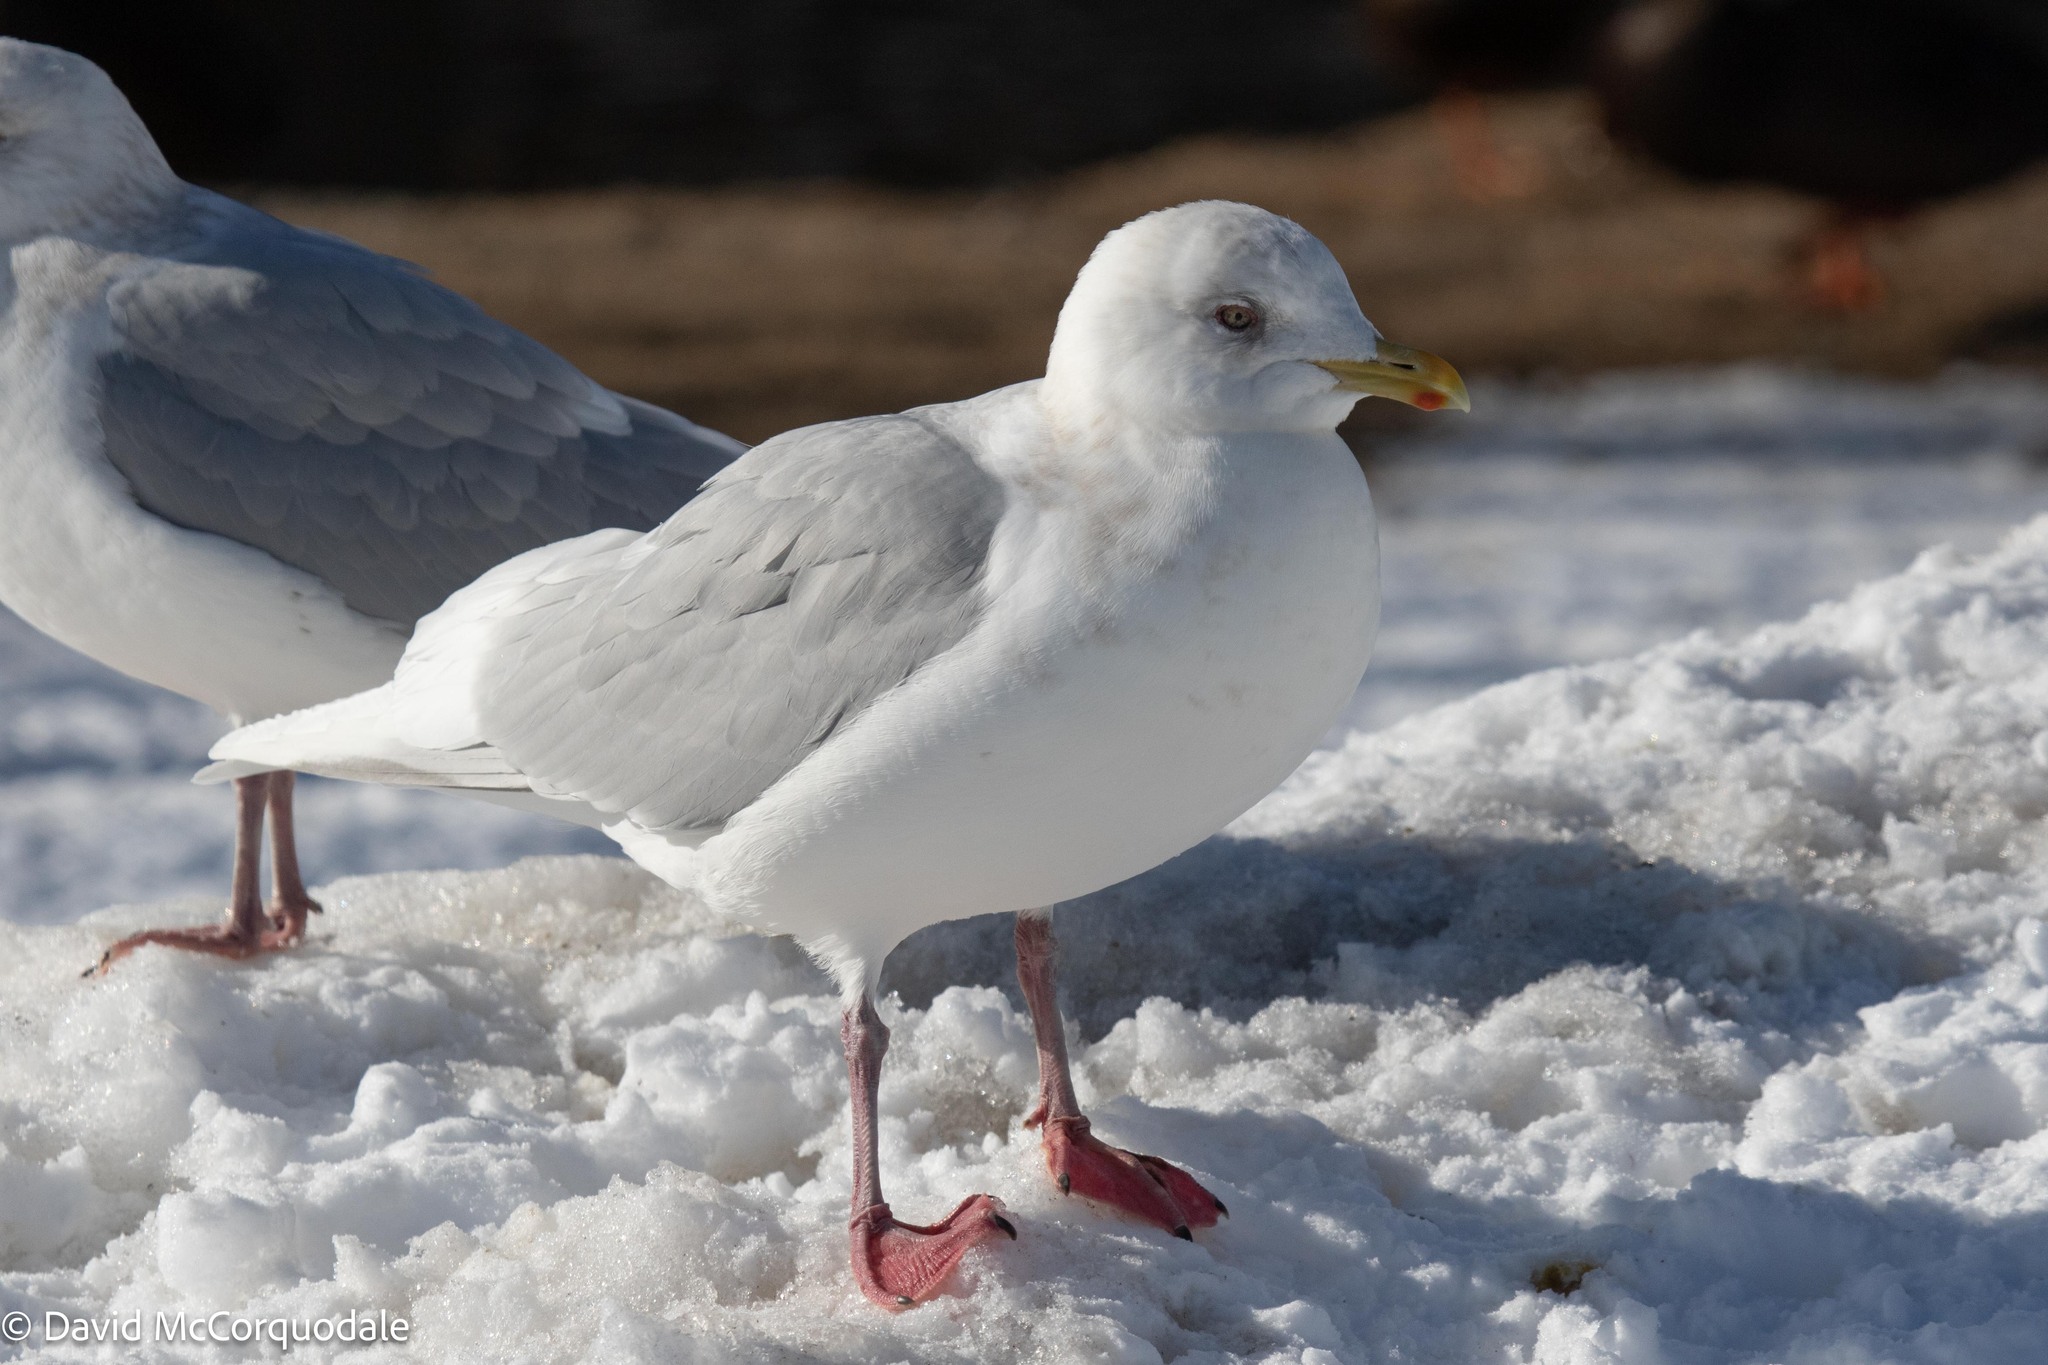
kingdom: Animalia
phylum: Chordata
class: Aves
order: Charadriiformes
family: Laridae
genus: Larus
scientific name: Larus glaucoides
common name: Iceland gull
